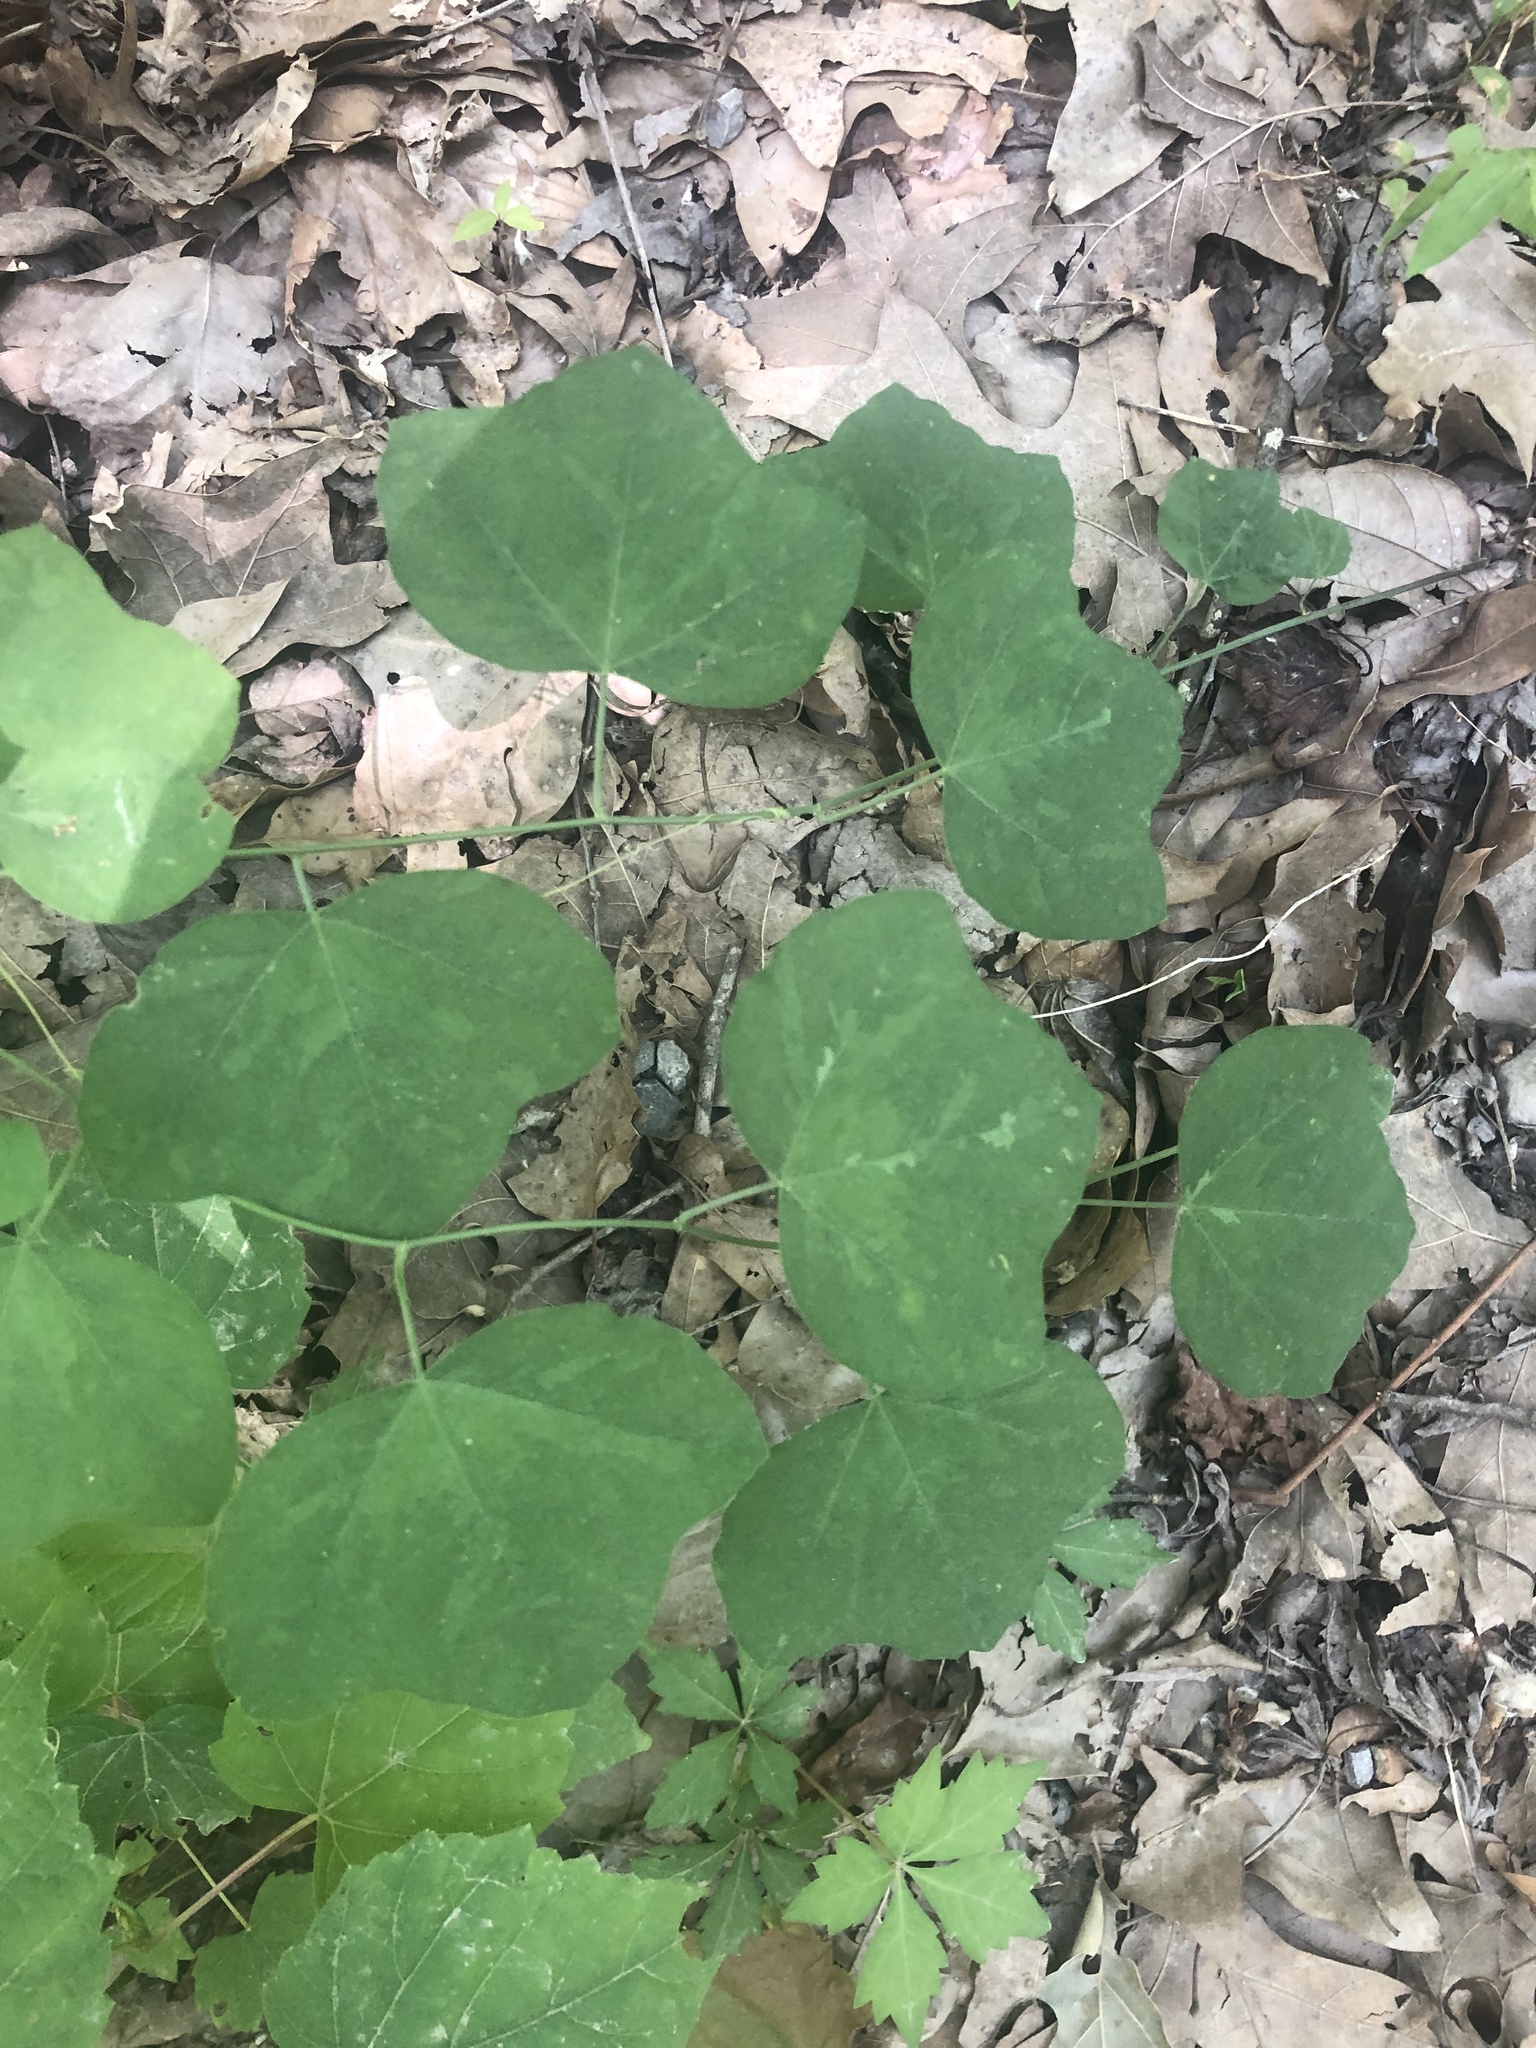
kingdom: Plantae
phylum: Tracheophyta
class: Magnoliopsida
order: Malpighiales
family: Passifloraceae
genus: Passiflora
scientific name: Passiflora lutea
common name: Yellow passionflower
